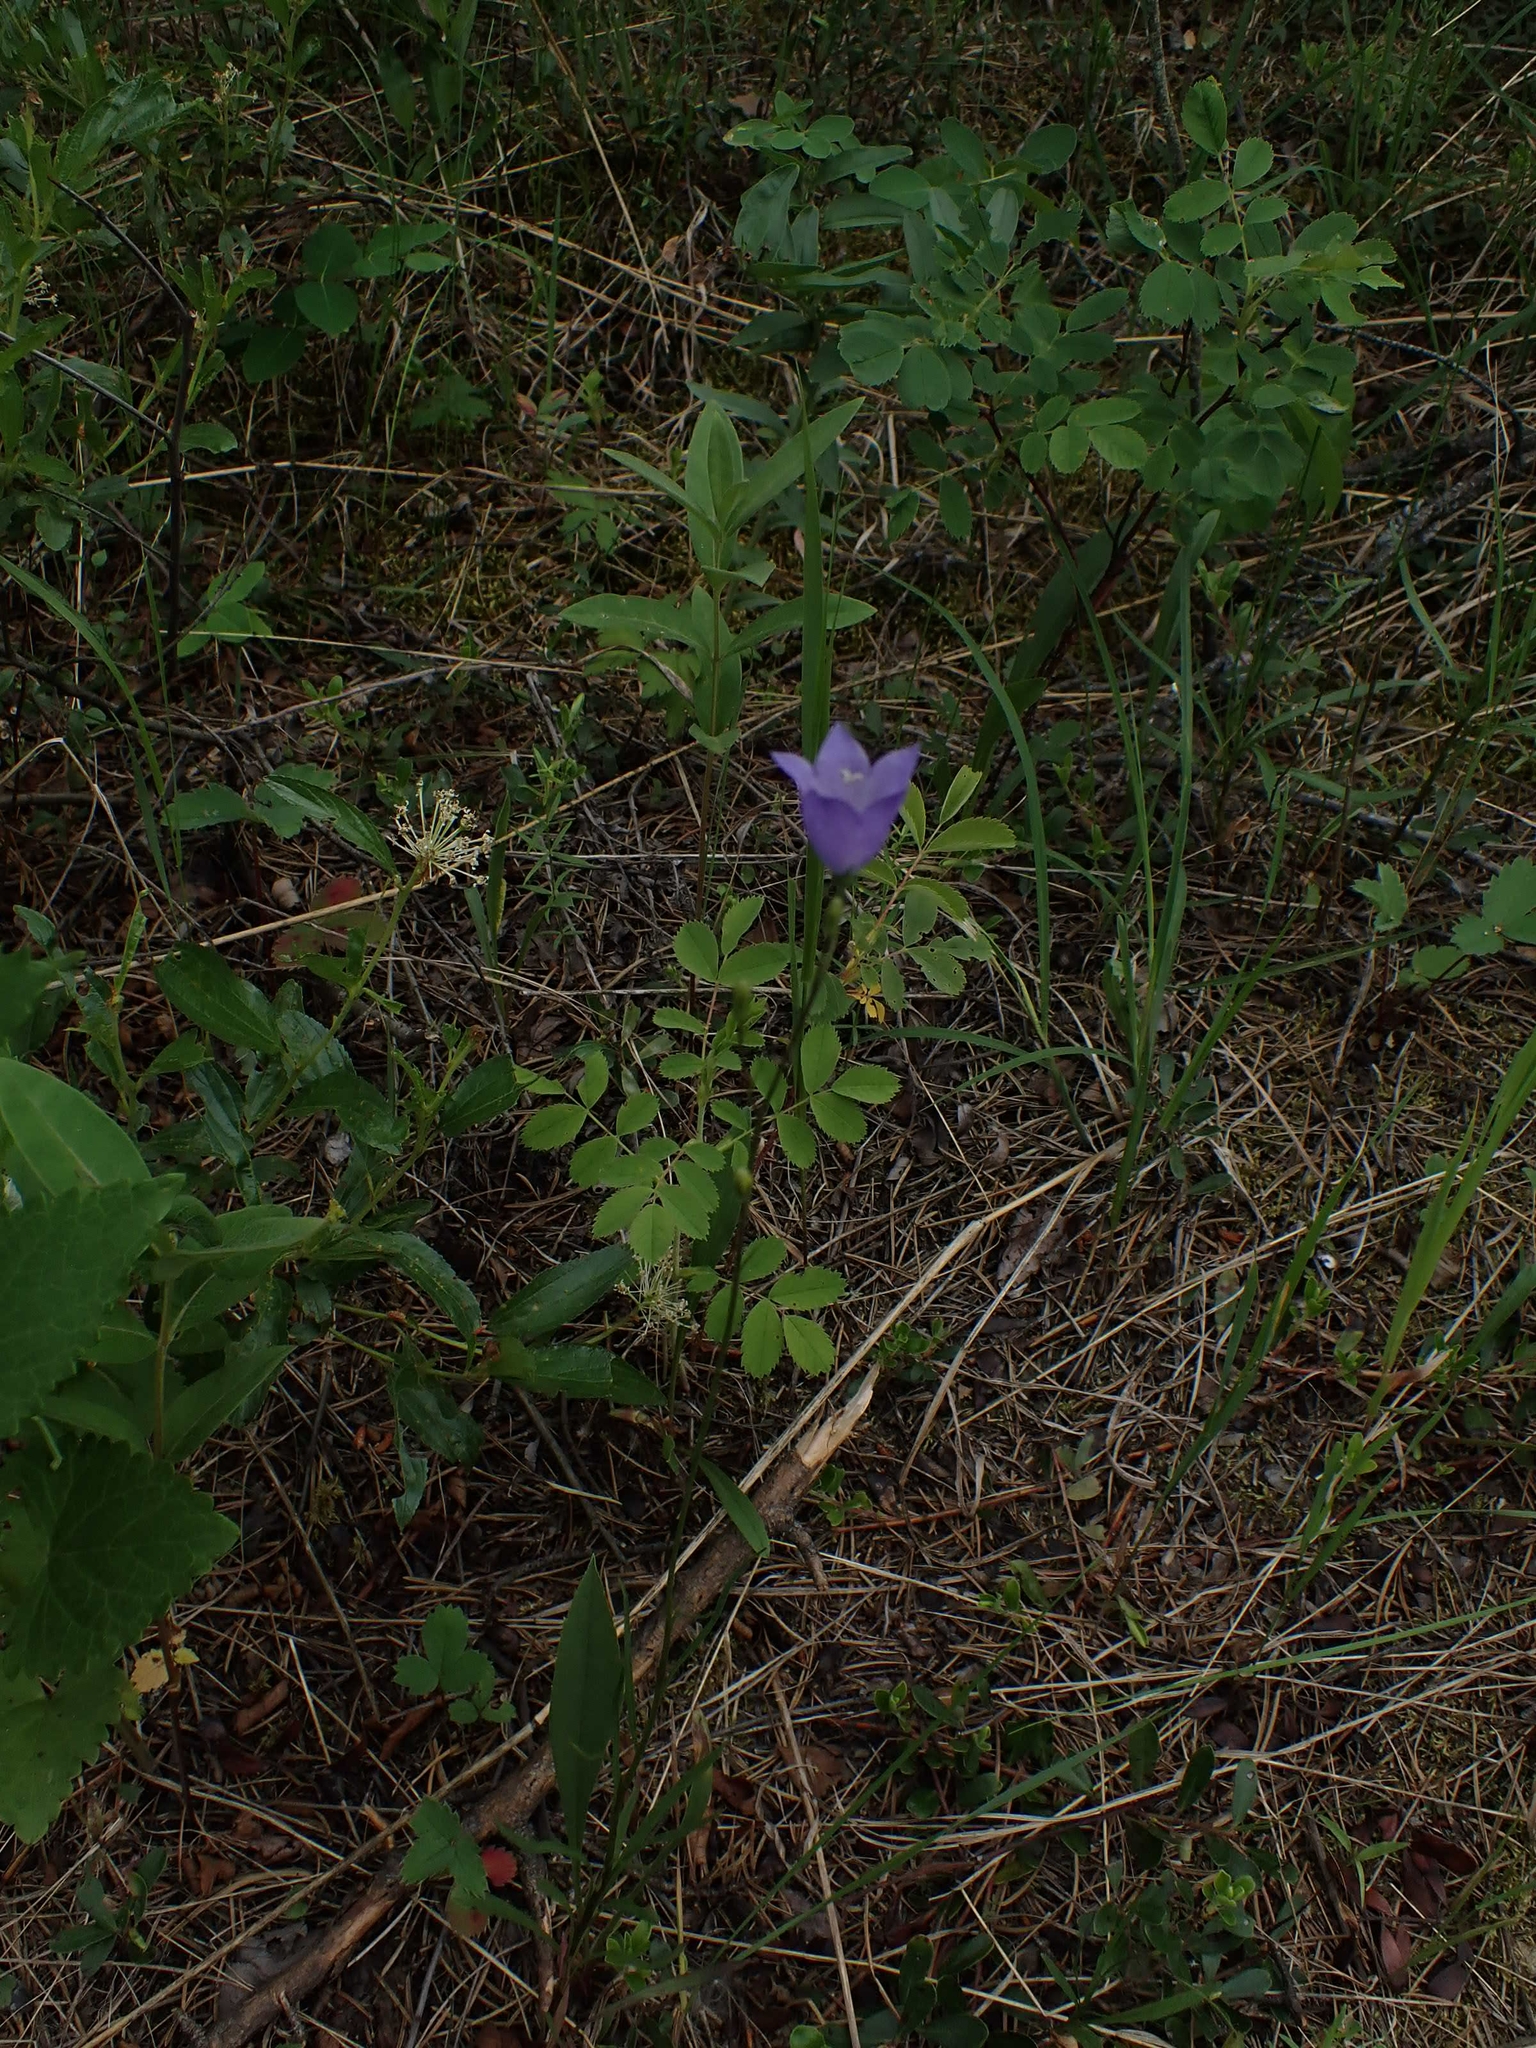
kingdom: Plantae
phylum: Tracheophyta
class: Magnoliopsida
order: Asterales
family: Campanulaceae
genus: Campanula
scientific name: Campanula petiolata
